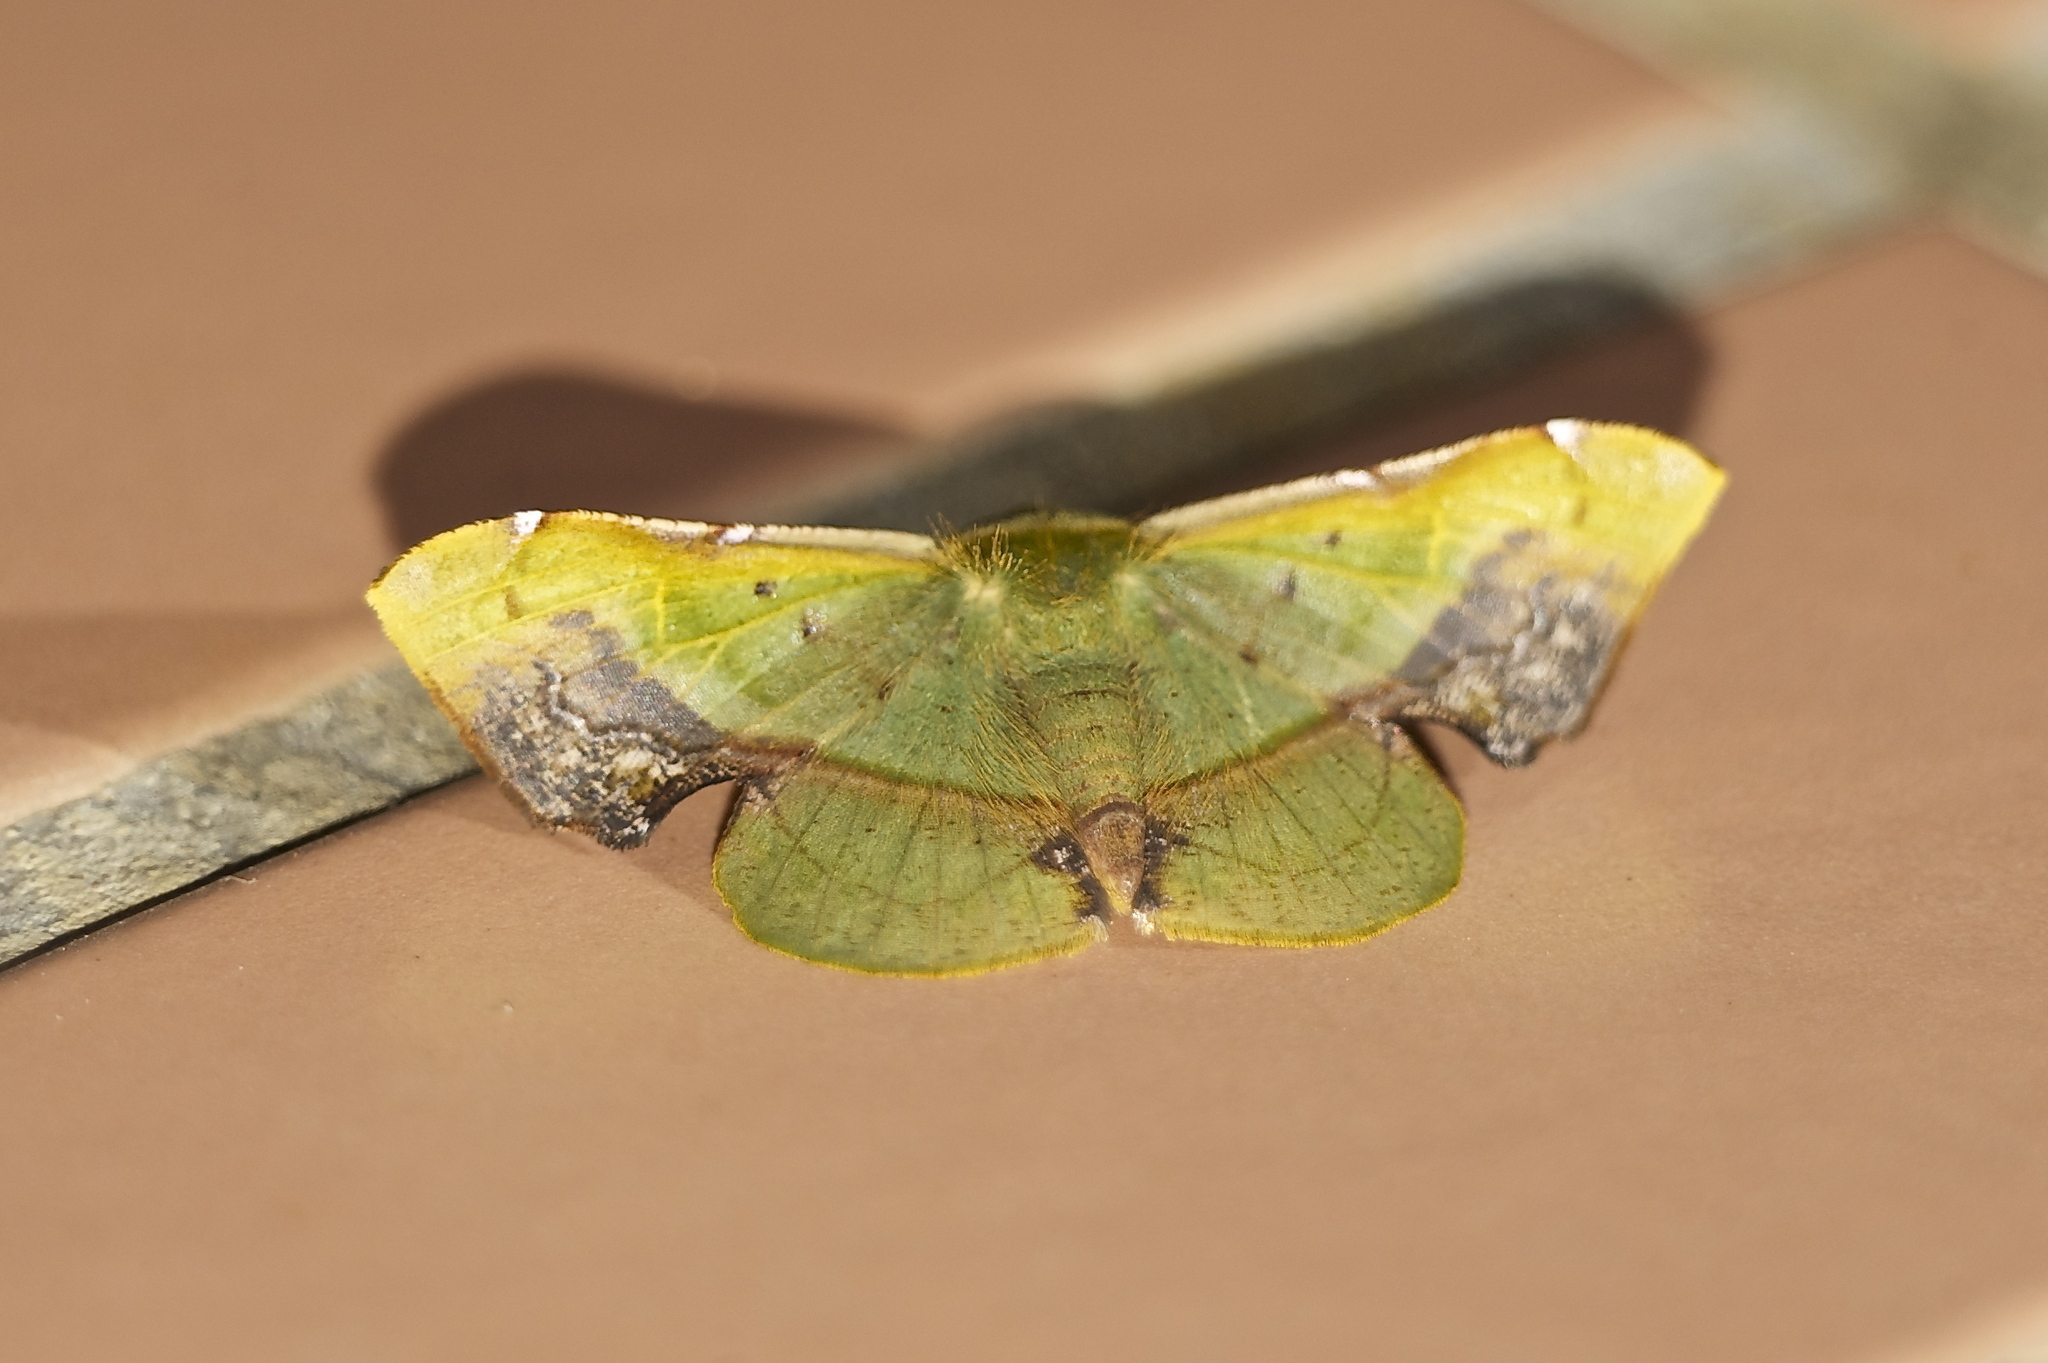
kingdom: Animalia
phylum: Arthropoda
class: Insecta
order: Lepidoptera
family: Geometridae
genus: Fascellina
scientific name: Fascellina plagiata
